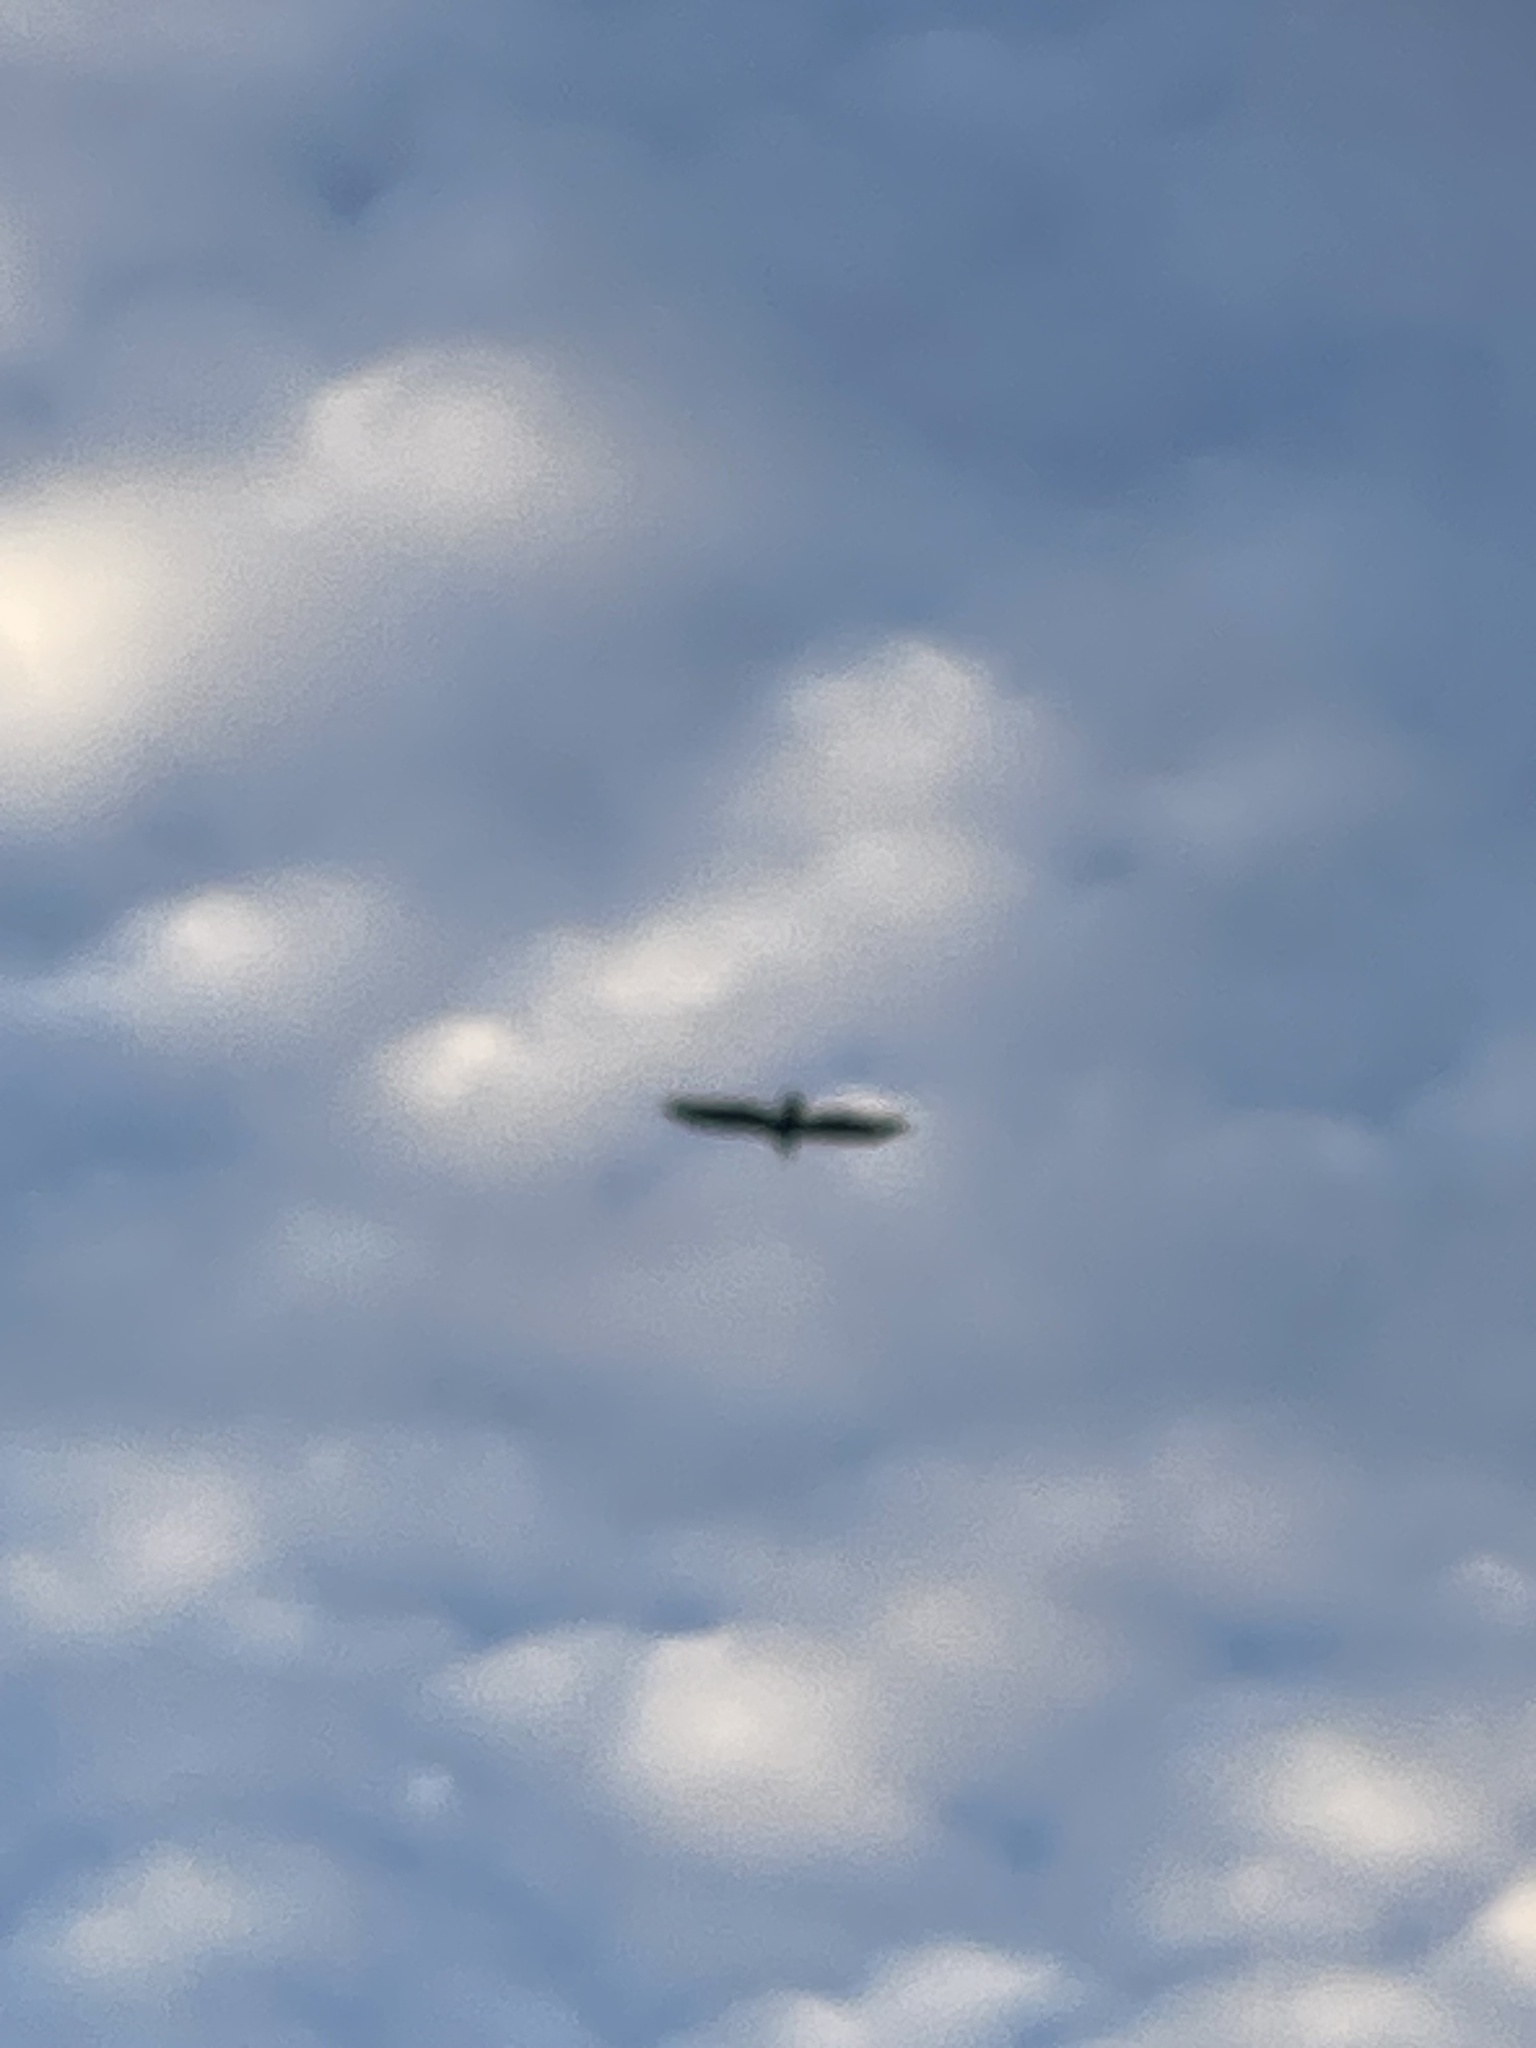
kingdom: Animalia
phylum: Chordata
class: Aves
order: Accipitriformes
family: Cathartidae
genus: Cathartes
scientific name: Cathartes aura
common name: Turkey vulture
